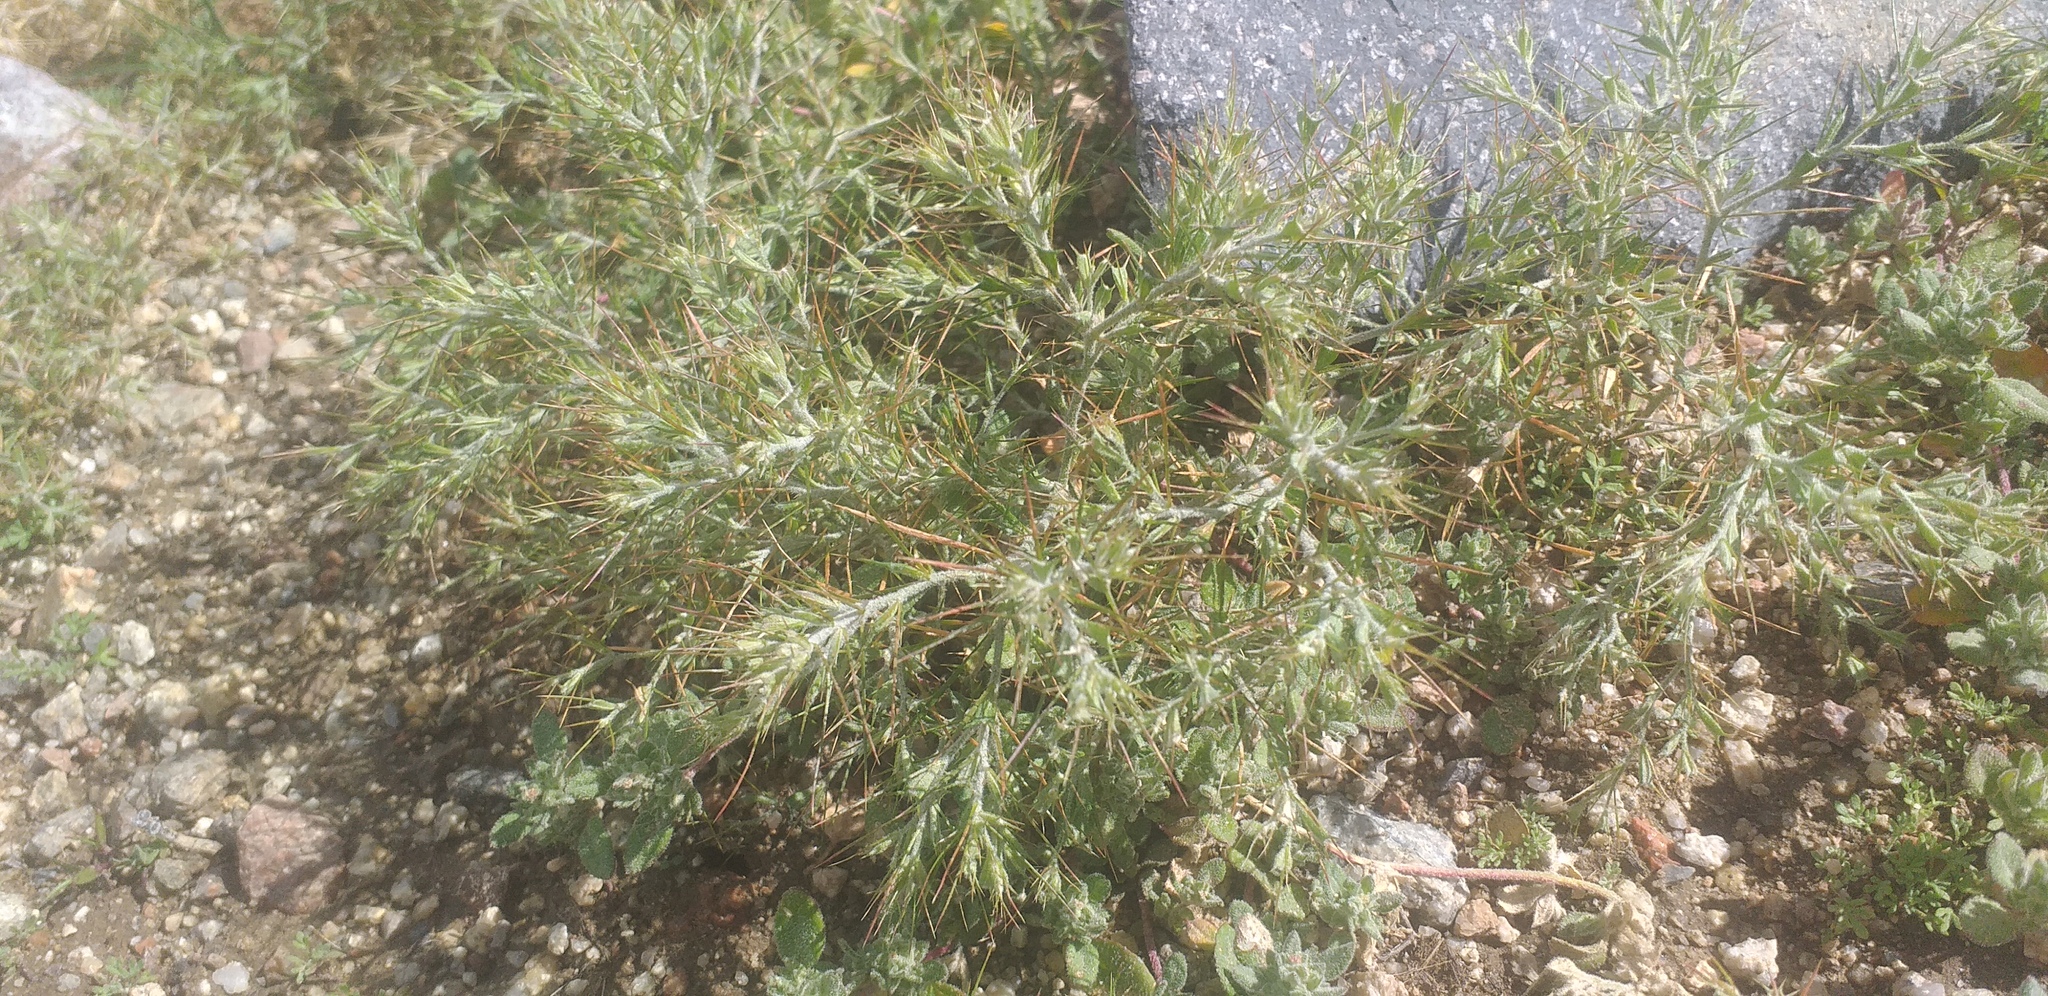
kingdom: Plantae
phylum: Tracheophyta
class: Magnoliopsida
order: Caryophyllales
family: Amaranthaceae
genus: Ceratocarpus
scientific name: Ceratocarpus arenarius
